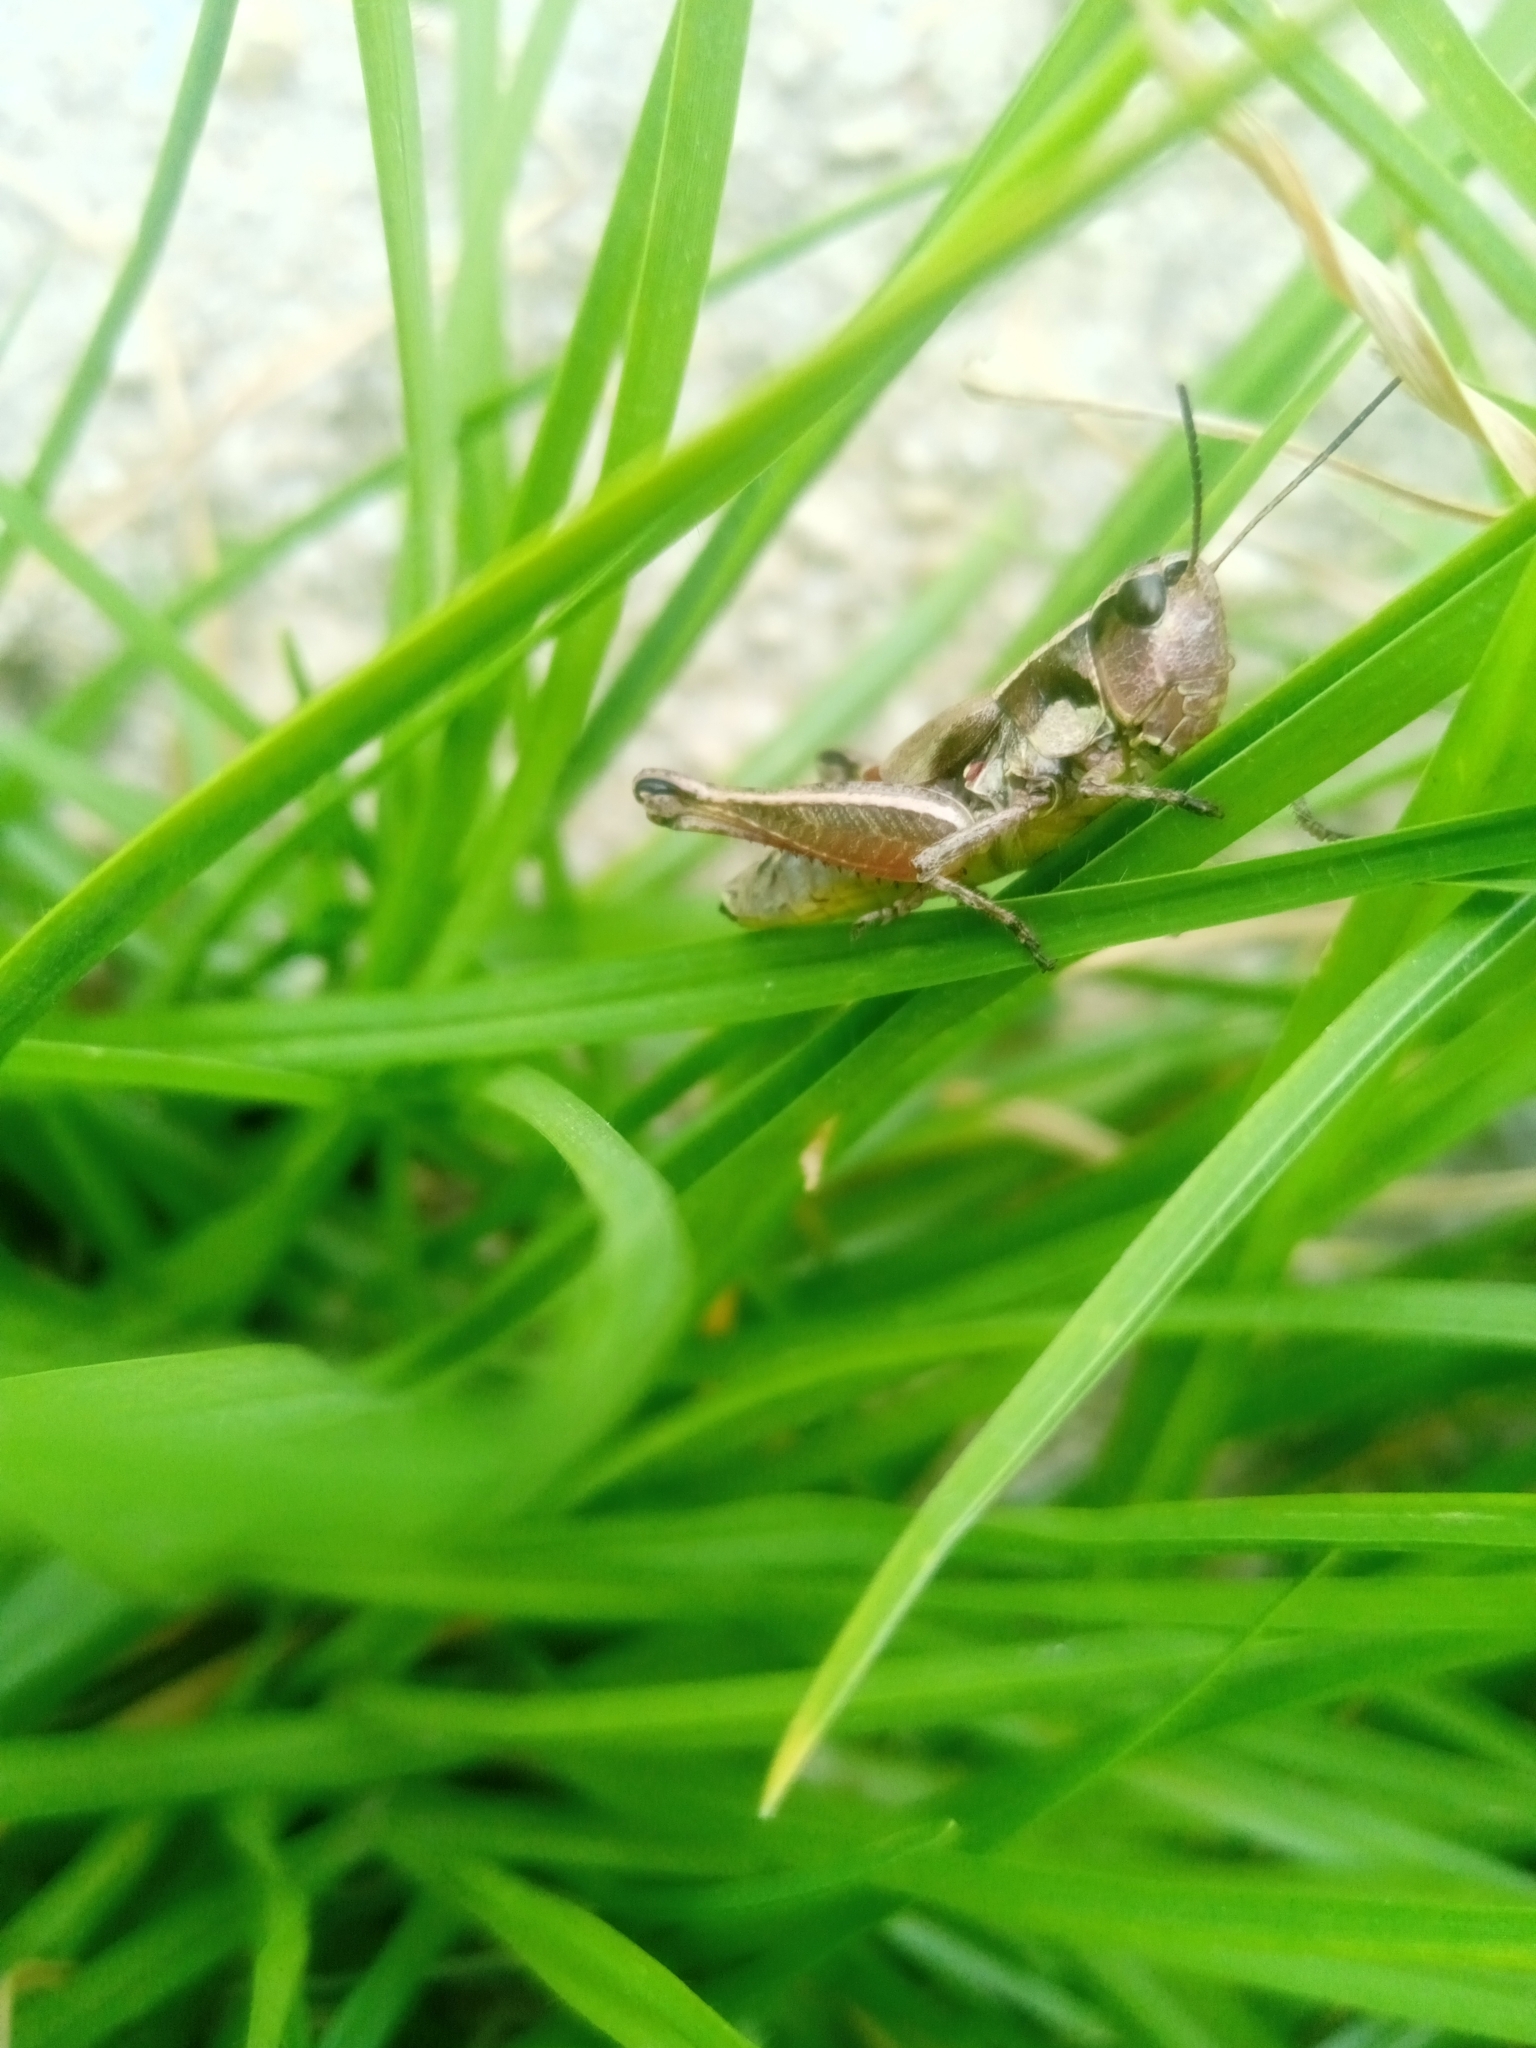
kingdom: Animalia
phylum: Arthropoda
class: Insecta
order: Orthoptera
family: Acrididae
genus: Boopedon
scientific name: Boopedon rufipes
